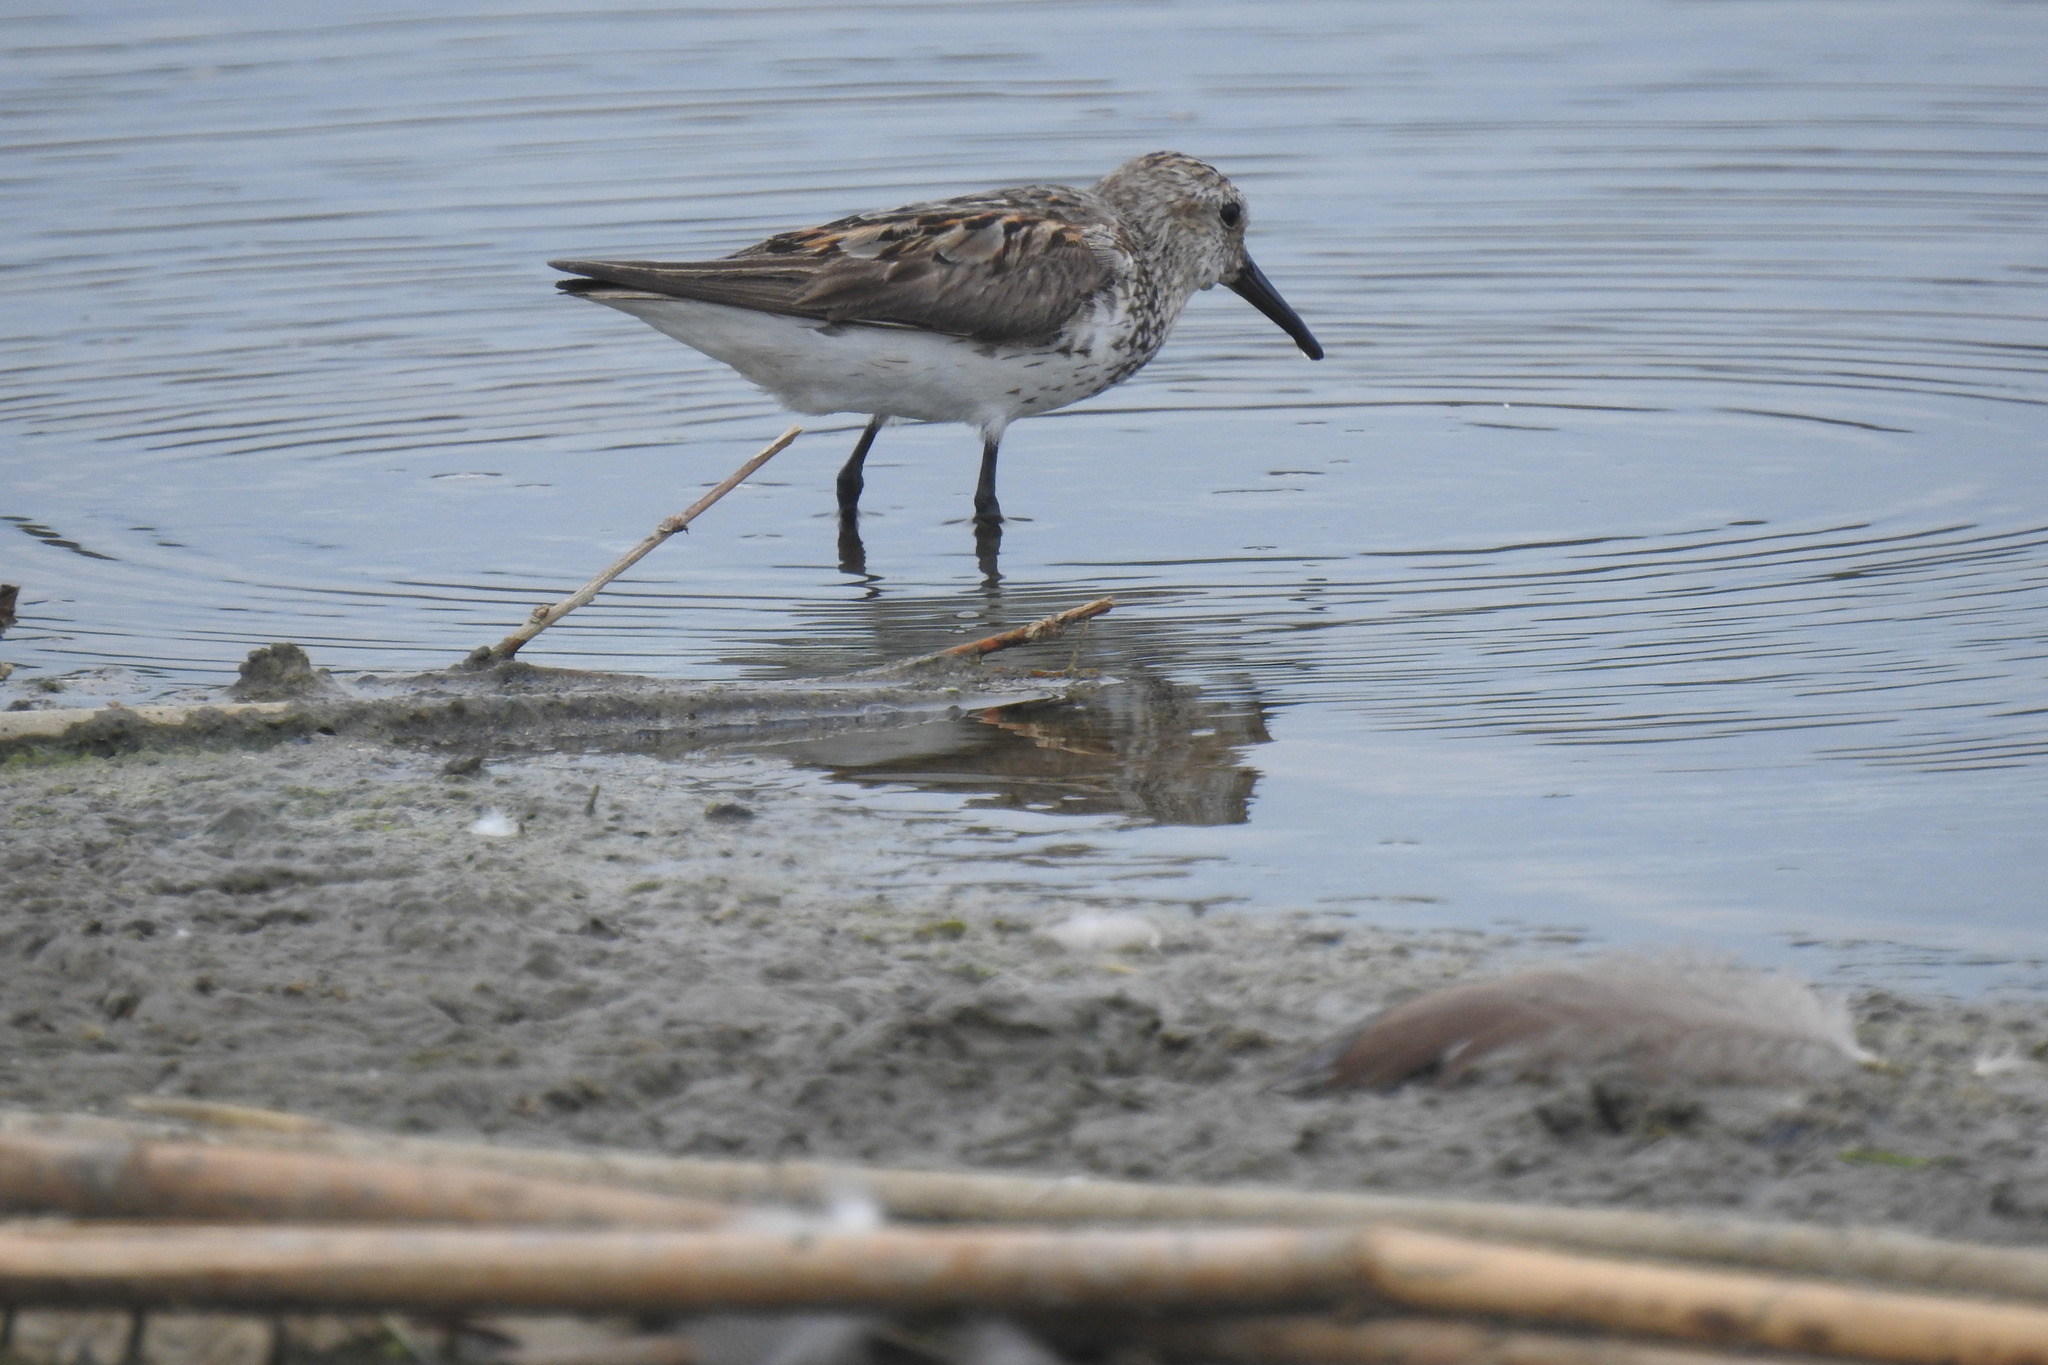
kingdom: Animalia
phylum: Chordata
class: Aves
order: Charadriiformes
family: Scolopacidae
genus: Calidris
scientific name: Calidris mauri
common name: Western sandpiper
